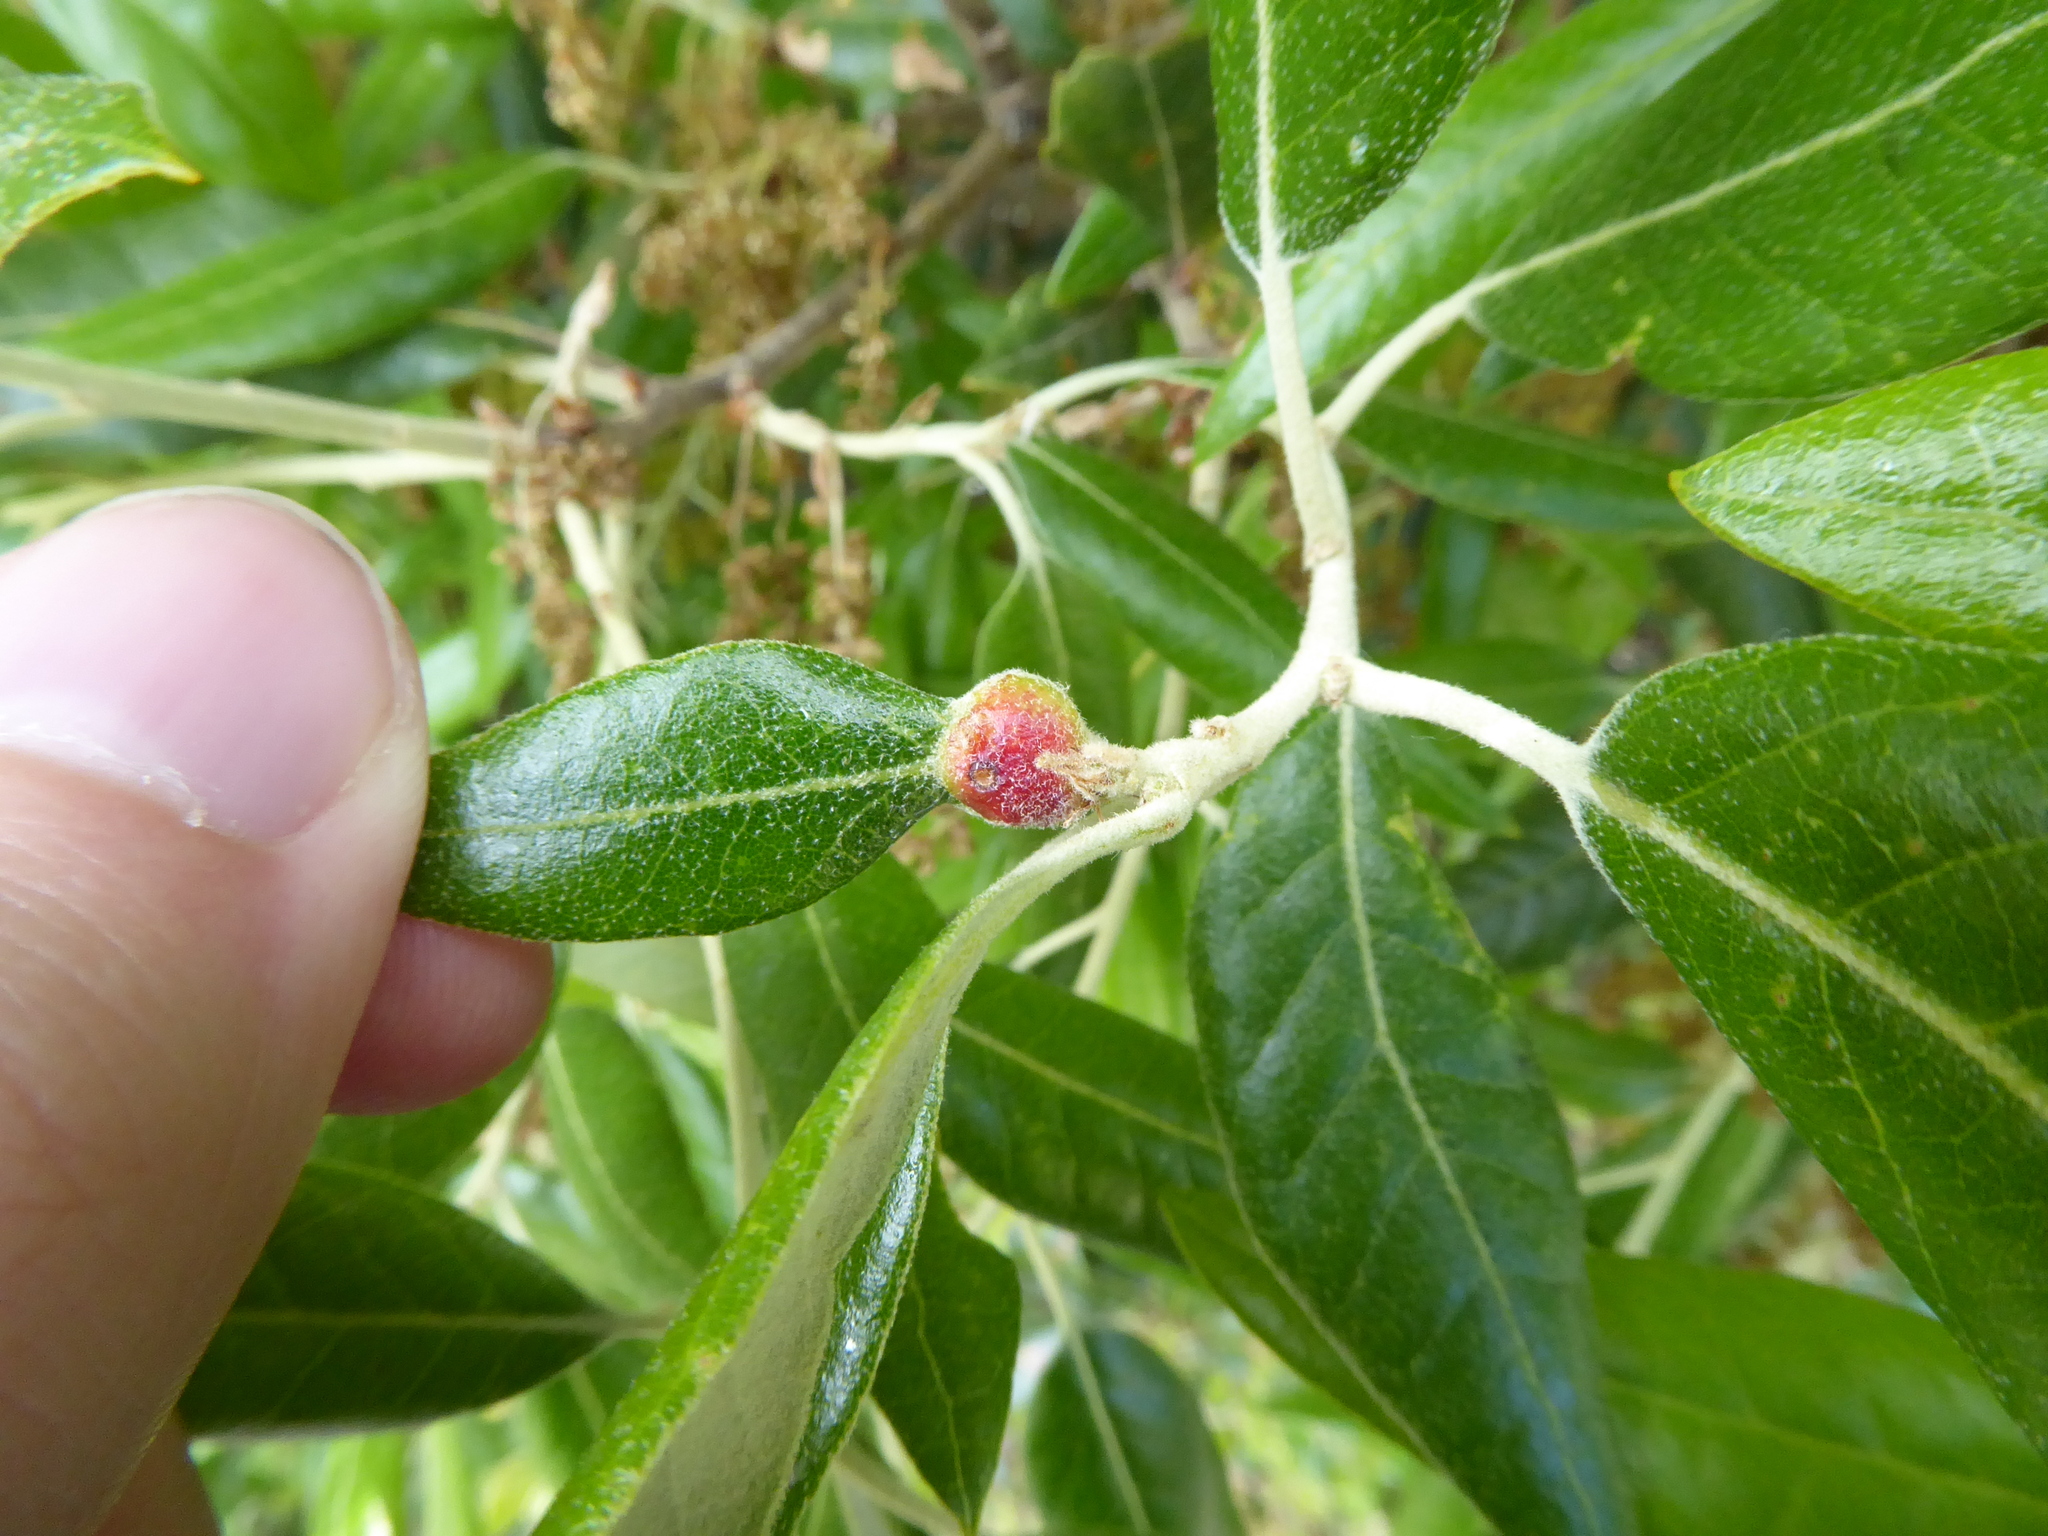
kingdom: Animalia
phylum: Arthropoda
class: Insecta
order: Hymenoptera
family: Cynipidae
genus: Plagiotrochus
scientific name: Plagiotrochus quercusilicis
